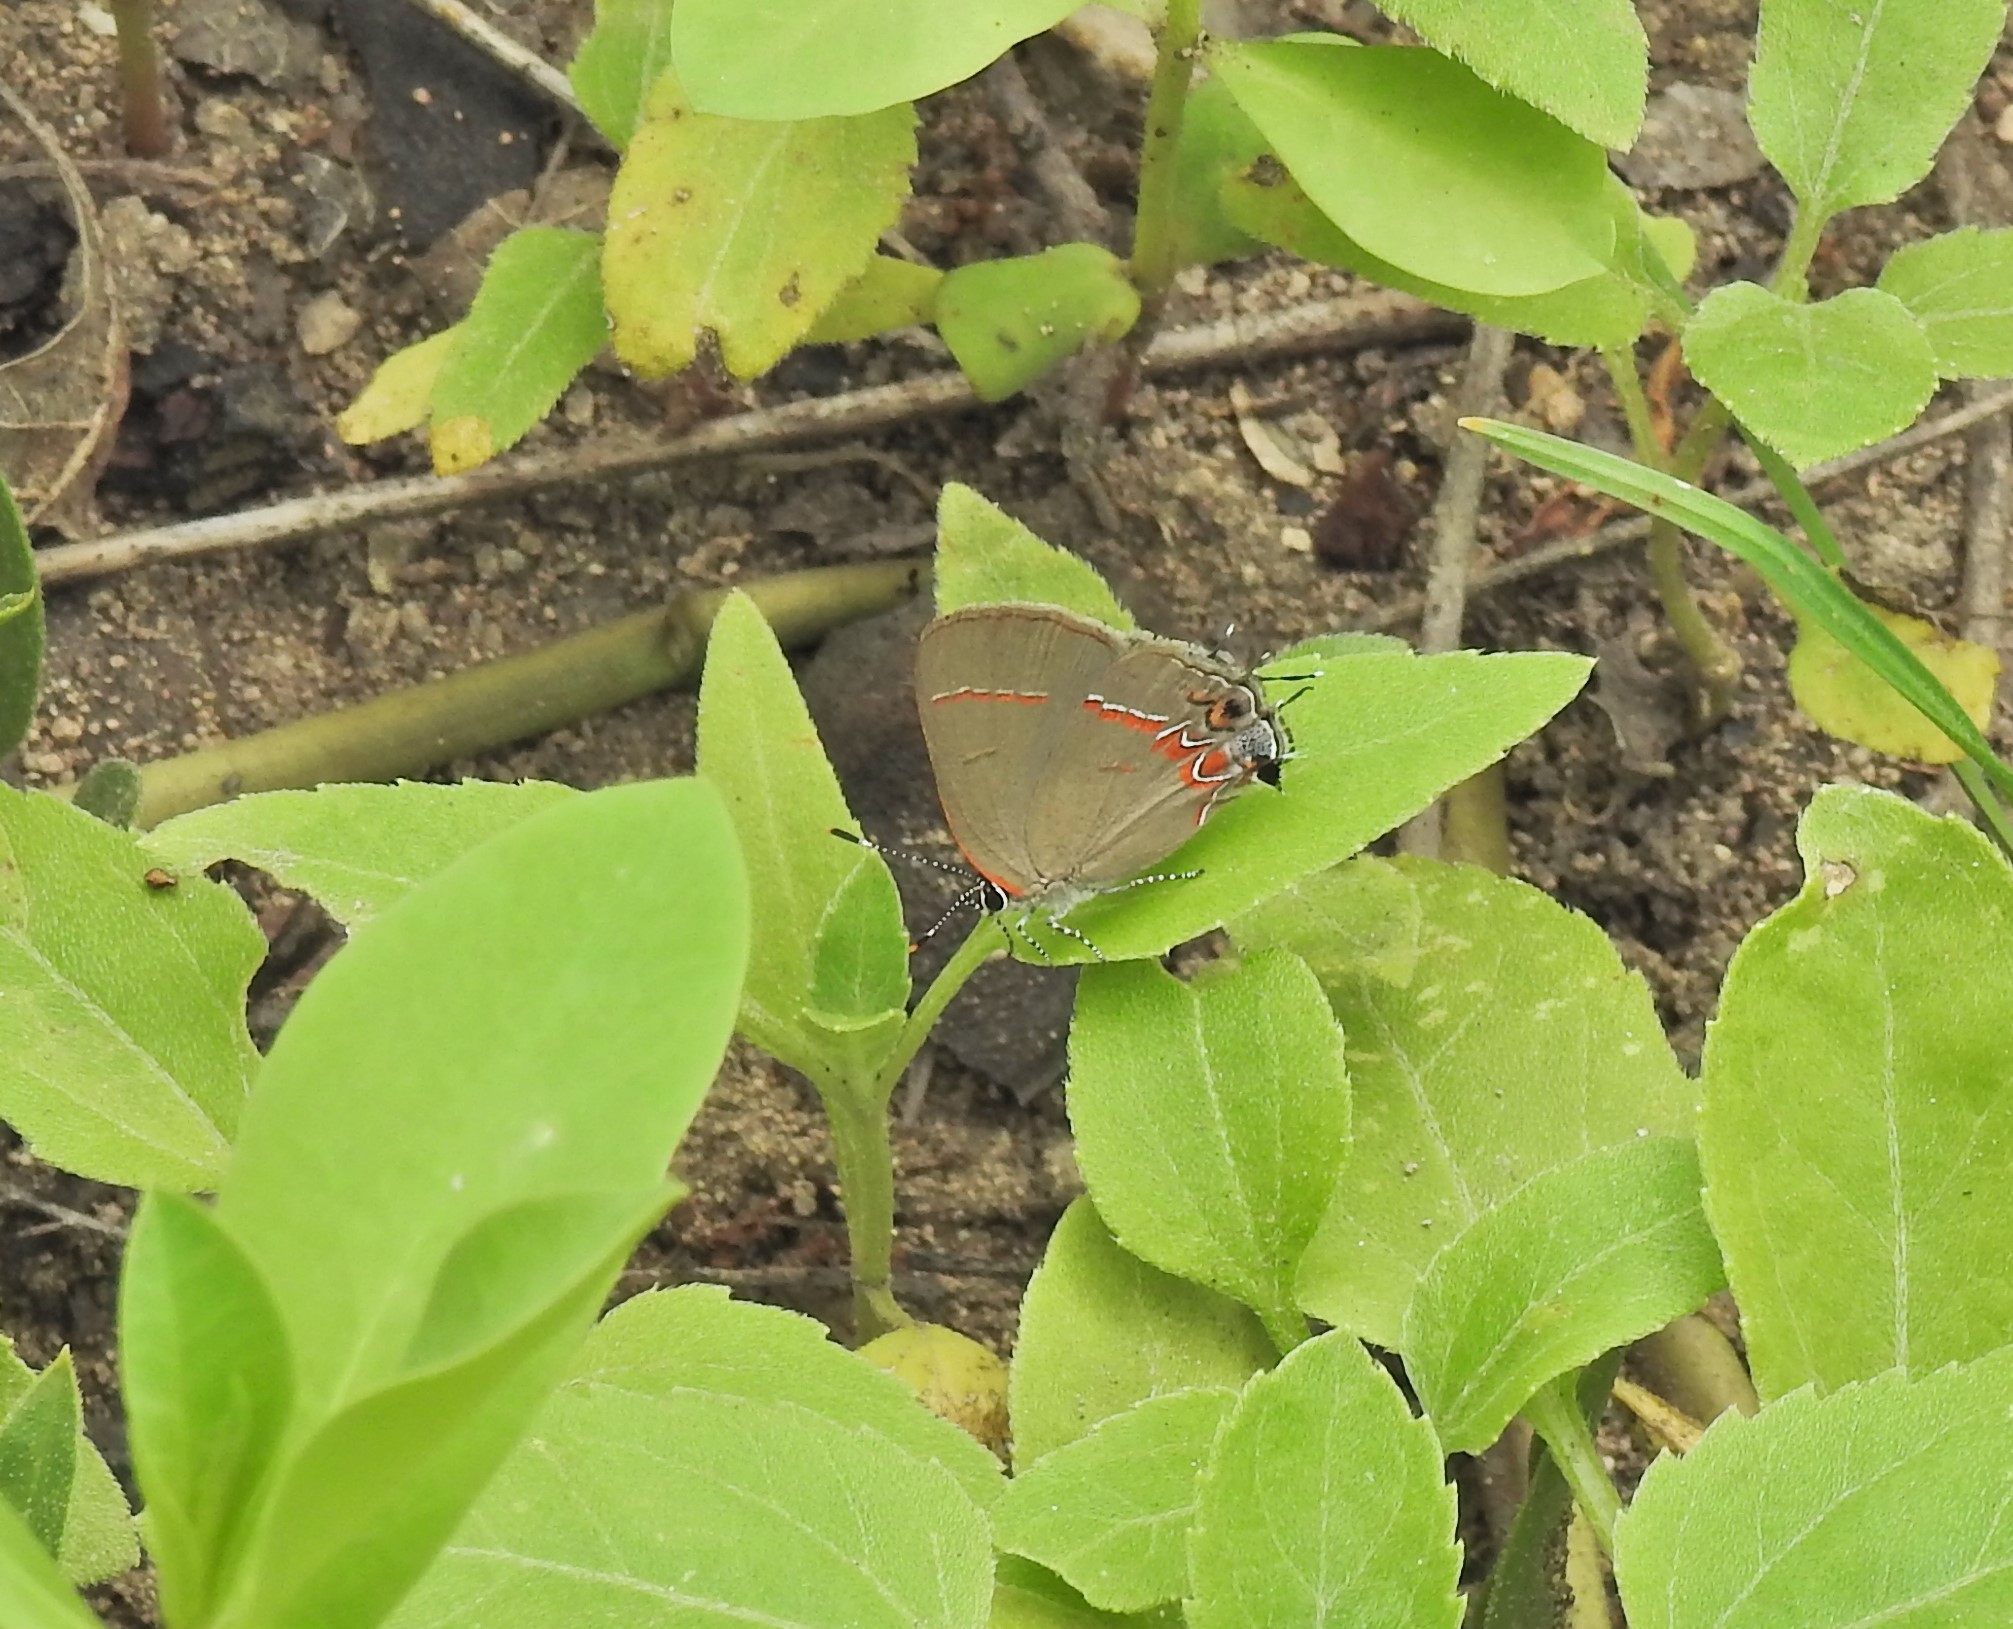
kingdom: Animalia
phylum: Arthropoda
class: Insecta
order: Lepidoptera
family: Lycaenidae
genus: Calycopis
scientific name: Calycopis isobeon
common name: Dusky-blue groundstreak
